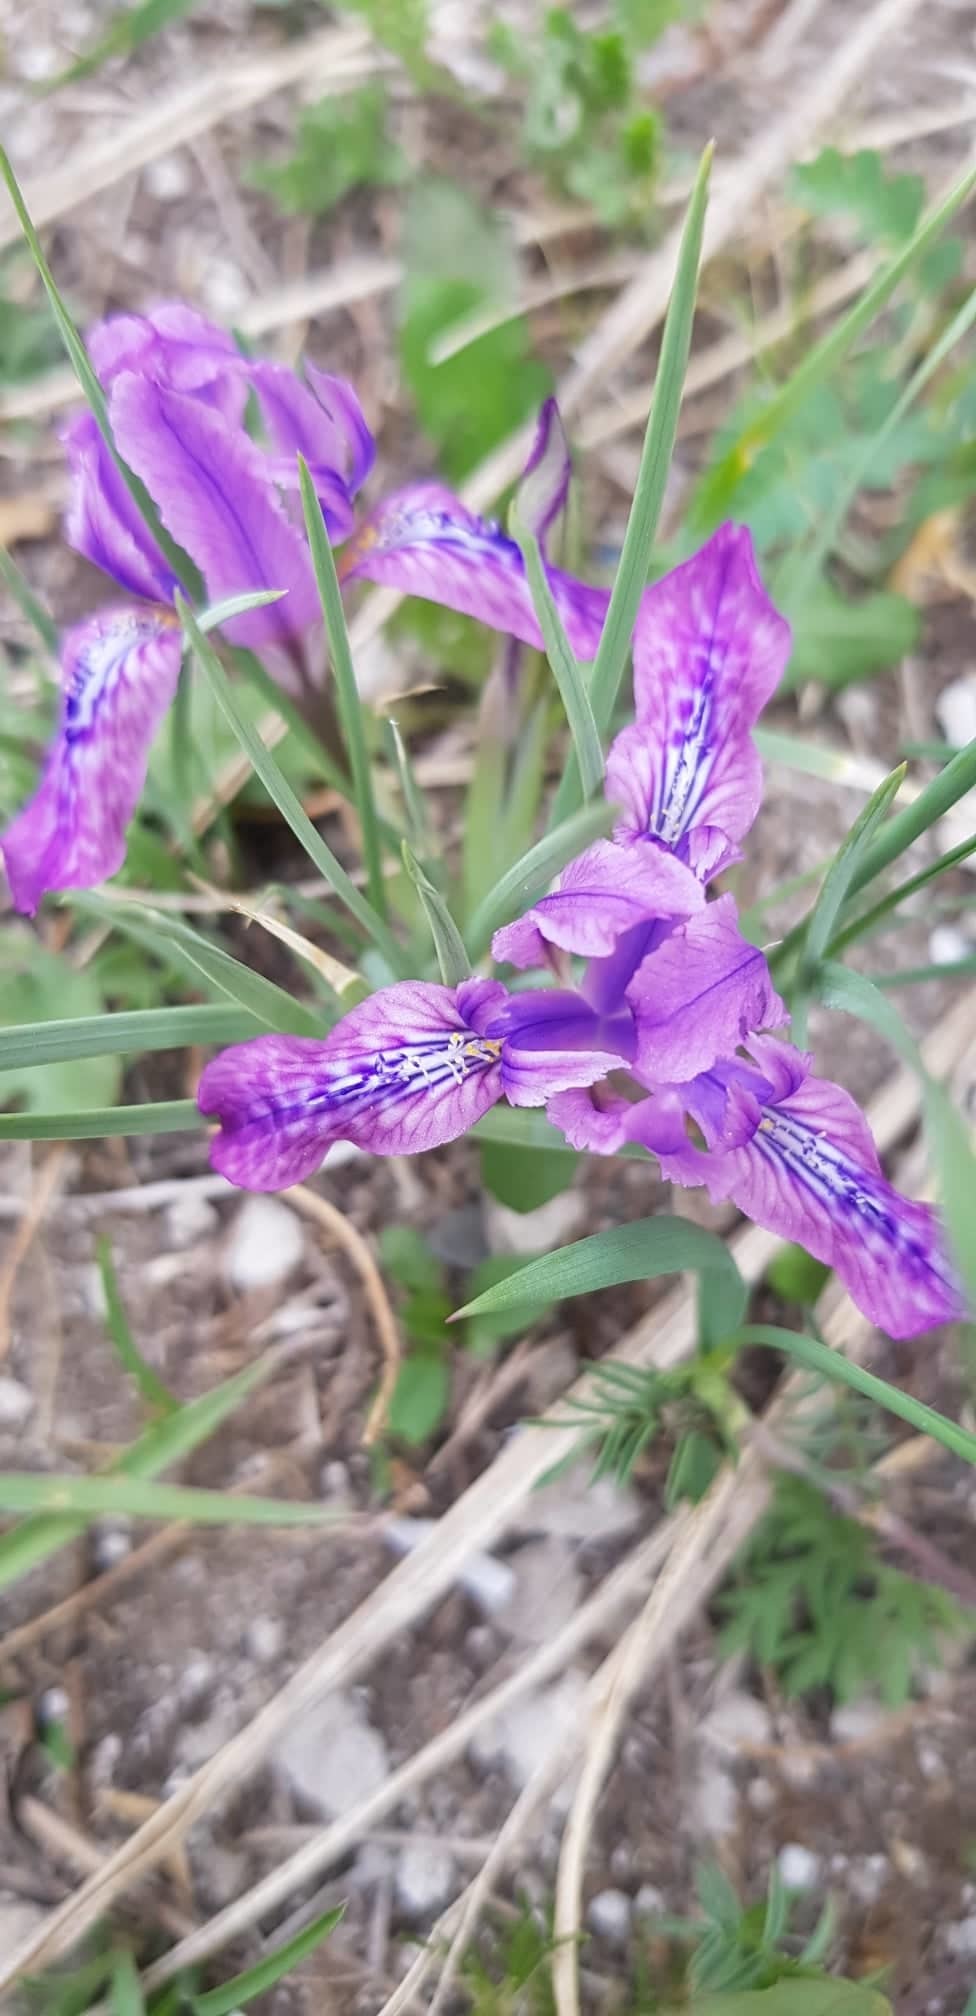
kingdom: Plantae
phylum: Tracheophyta
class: Liliopsida
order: Asparagales
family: Iridaceae
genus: Iris
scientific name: Iris tigridia
